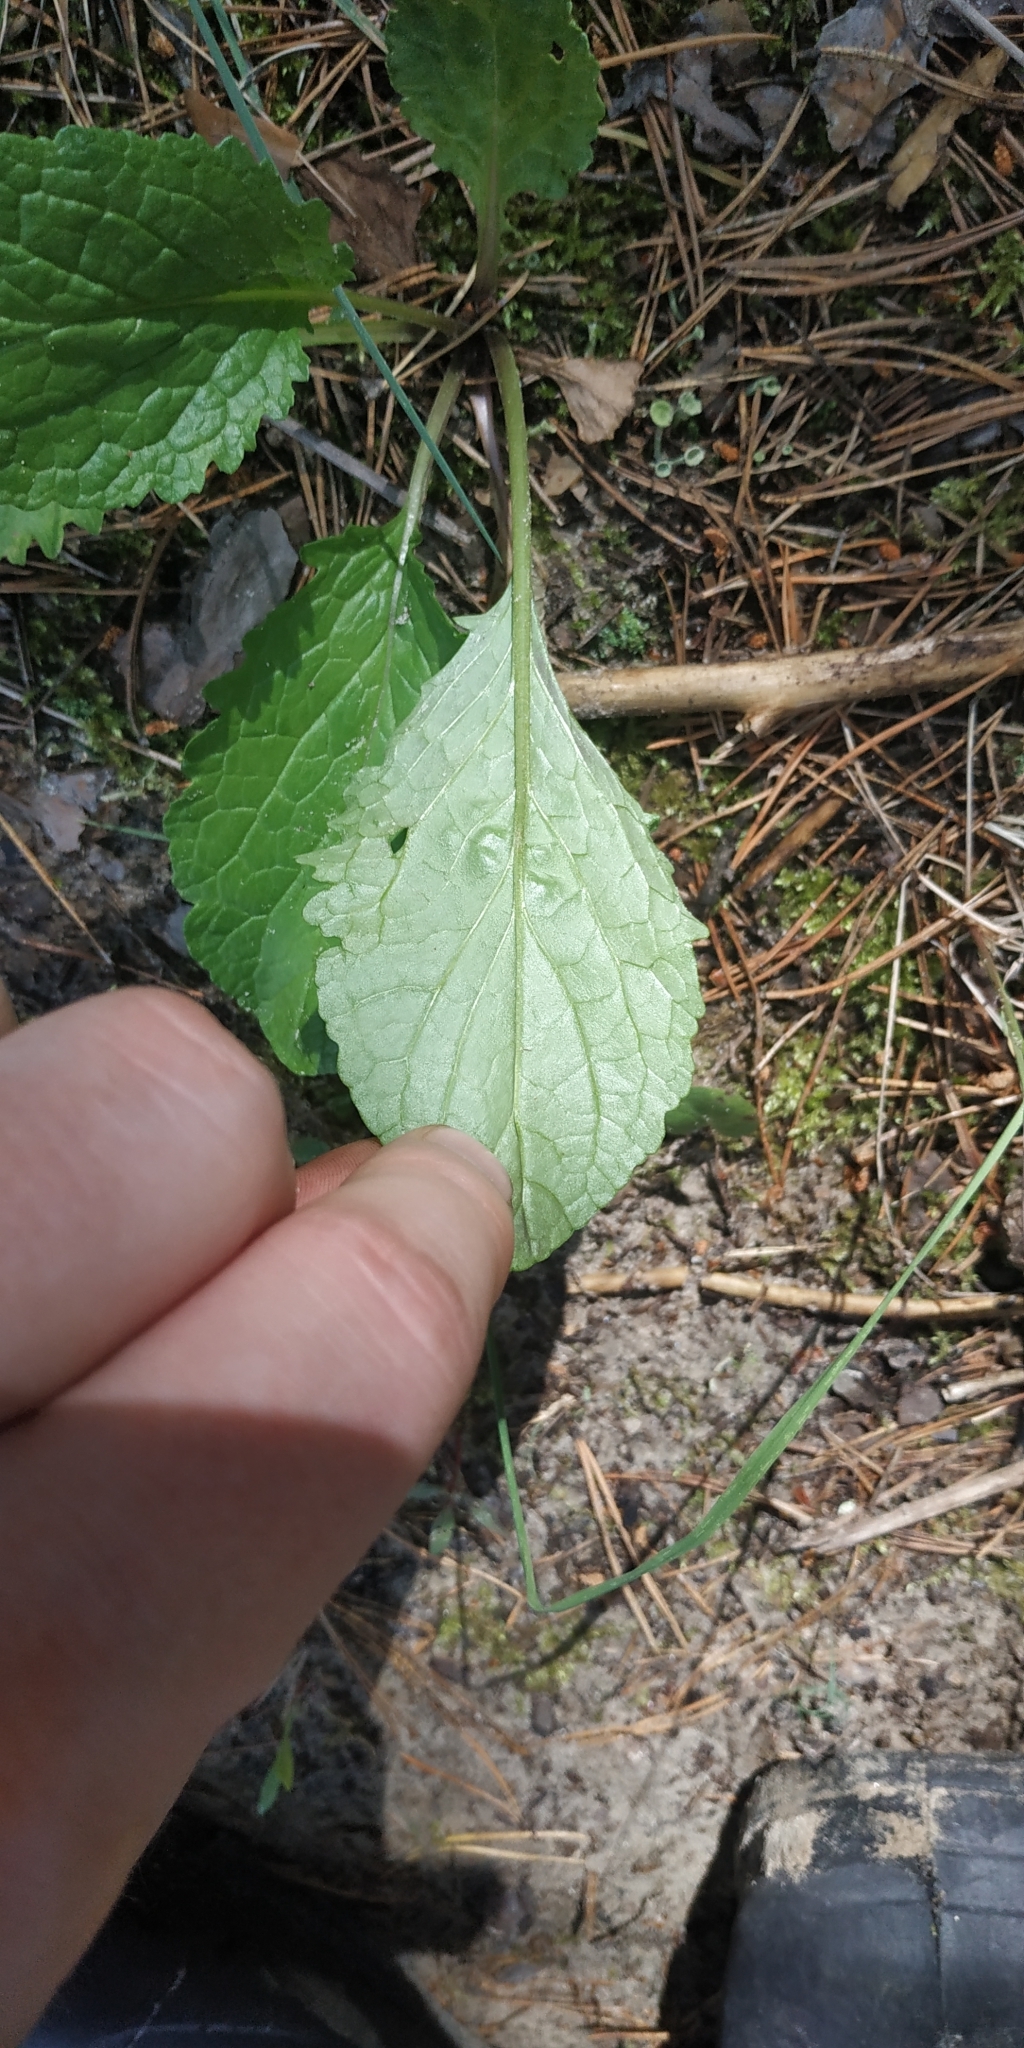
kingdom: Plantae
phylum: Tracheophyta
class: Magnoliopsida
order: Asterales
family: Asteraceae
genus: Jacobaea
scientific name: Jacobaea vulgaris
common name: Stinking willie
